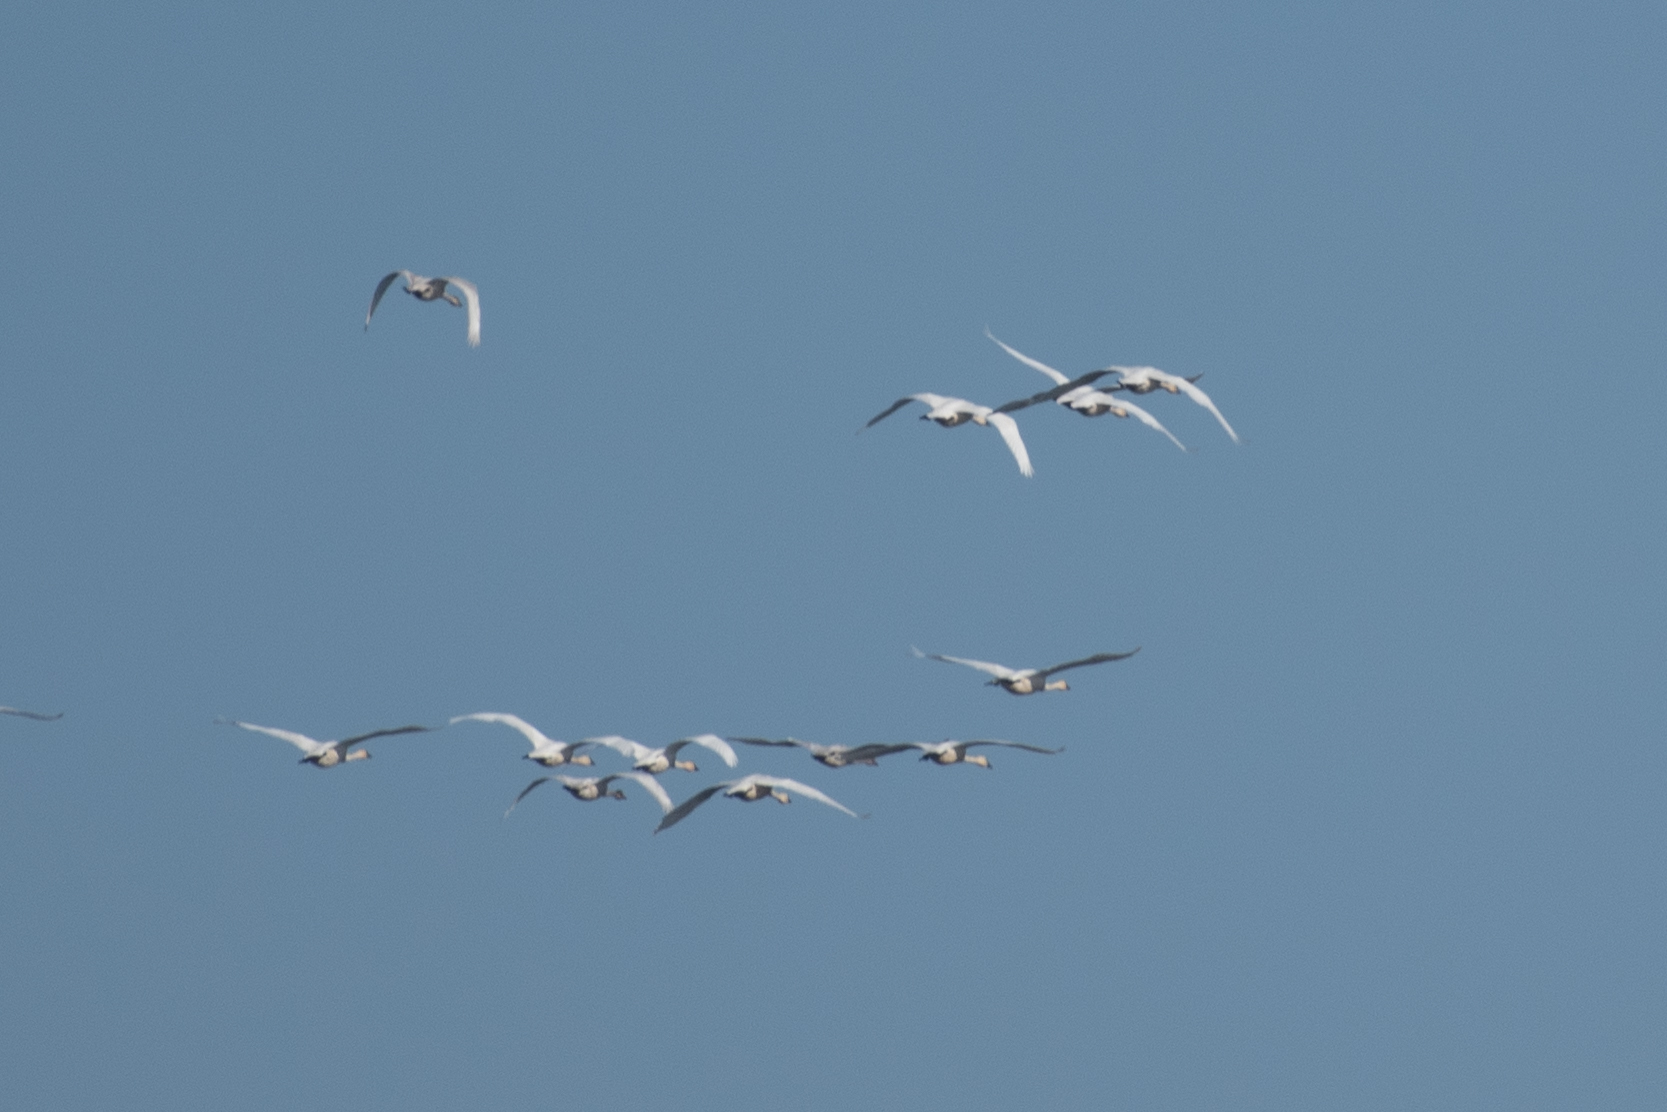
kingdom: Animalia
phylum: Chordata
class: Aves
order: Anseriformes
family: Anatidae
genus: Cygnus
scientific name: Cygnus columbianus
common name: Tundra swan
